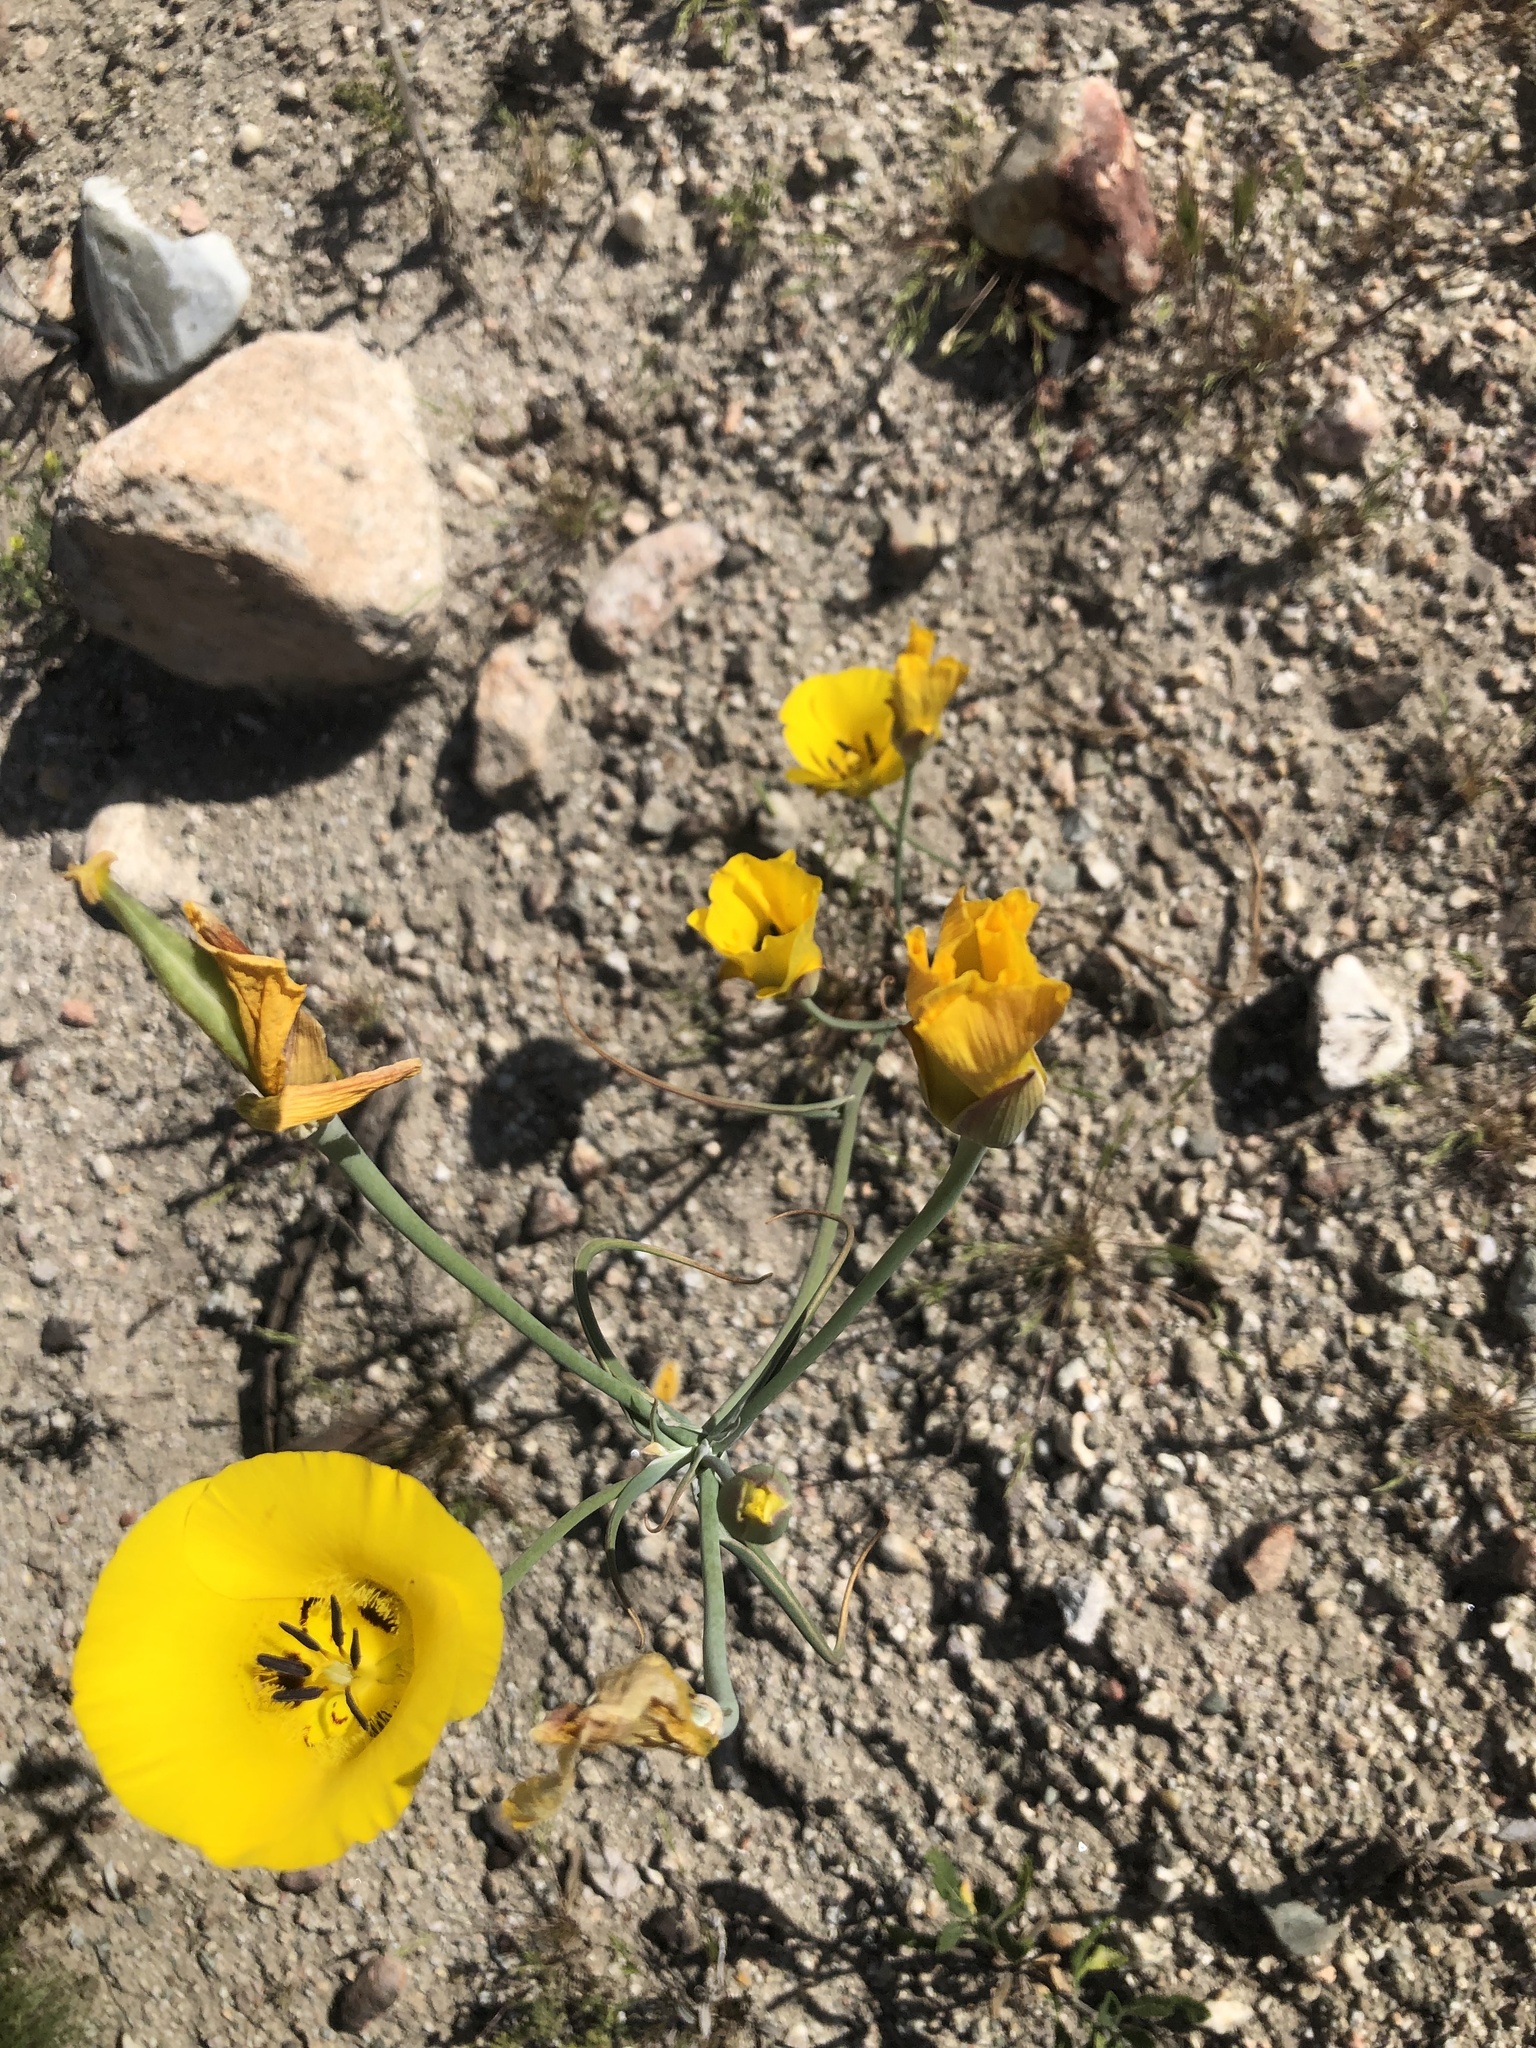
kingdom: Plantae
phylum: Tracheophyta
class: Liliopsida
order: Liliales
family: Liliaceae
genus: Calochortus
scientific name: Calochortus clavatus
